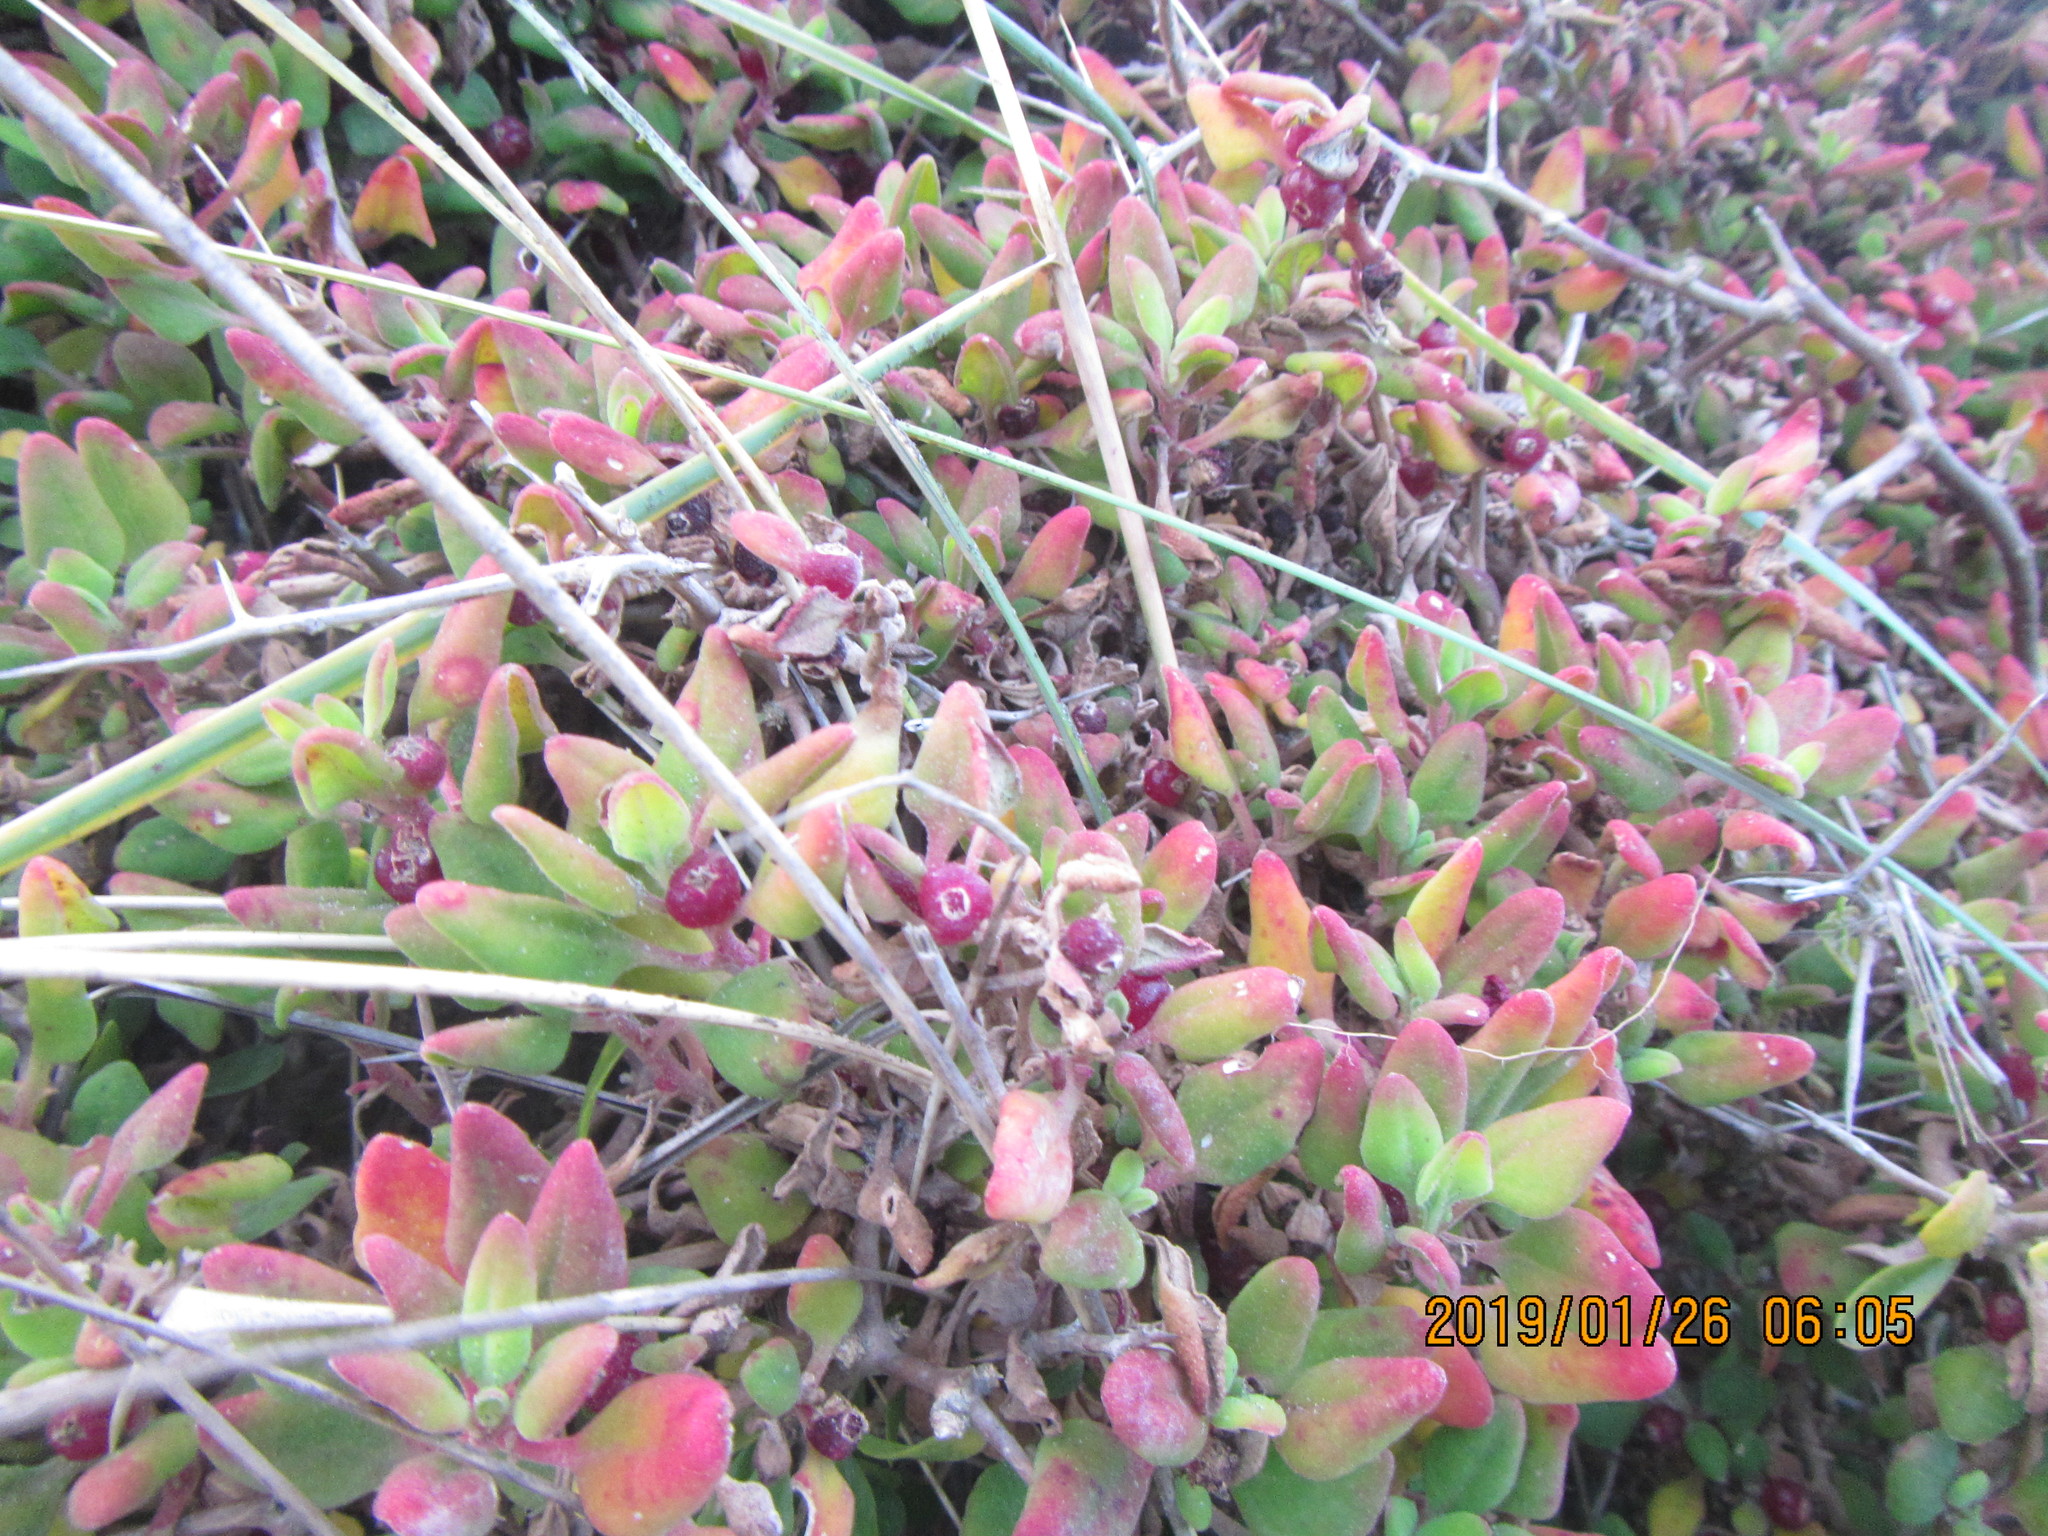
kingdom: Plantae
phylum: Tracheophyta
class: Magnoliopsida
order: Caryophyllales
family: Aizoaceae
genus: Tetragonia
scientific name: Tetragonia implexicoma
